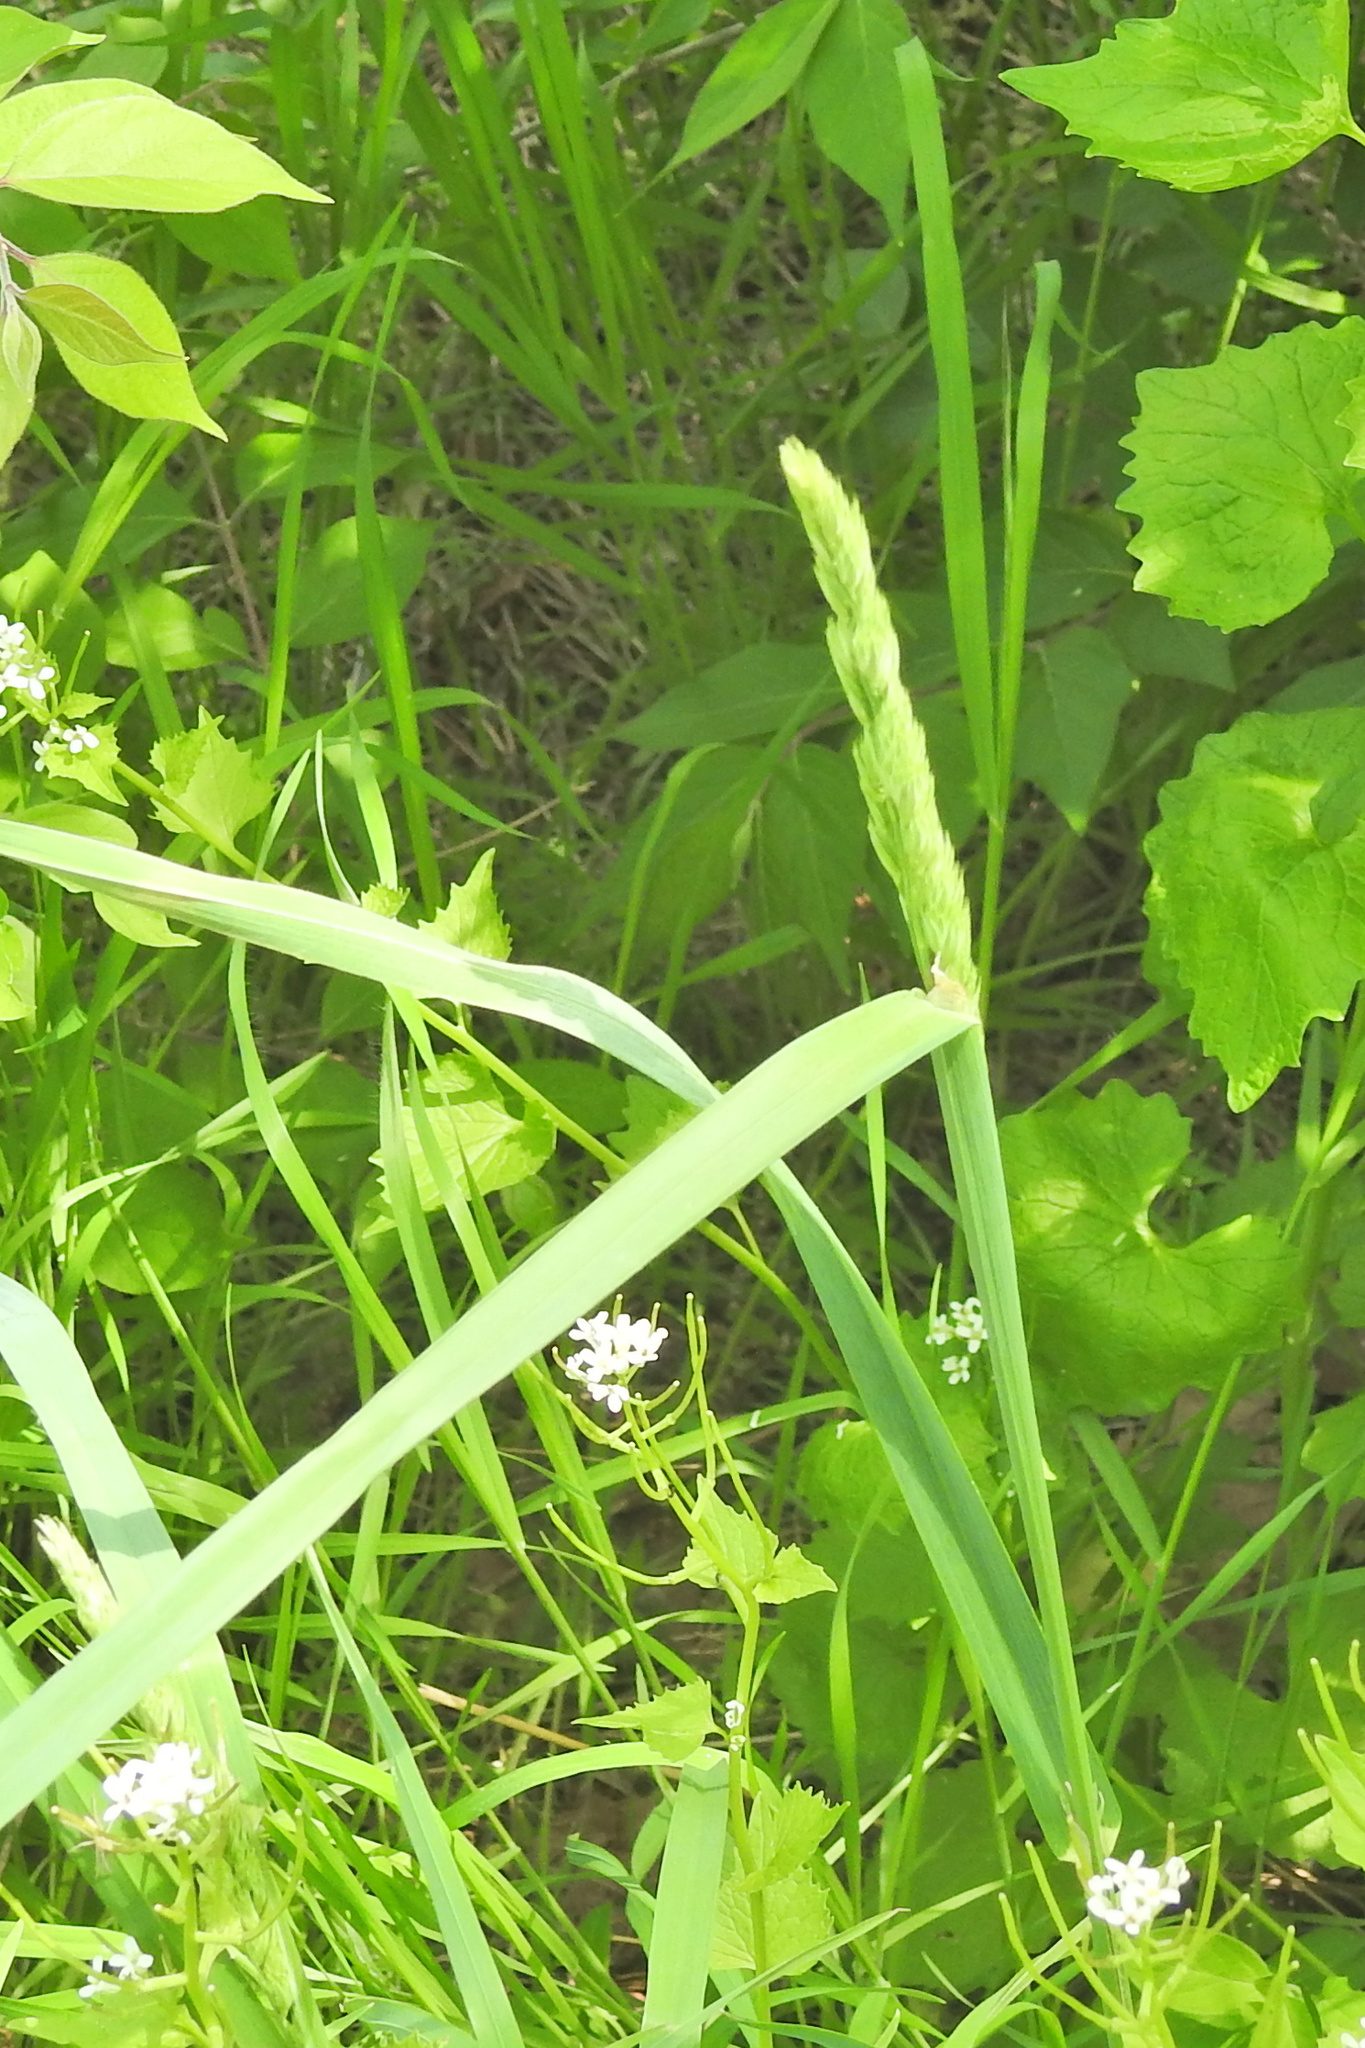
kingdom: Plantae
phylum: Tracheophyta
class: Liliopsida
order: Poales
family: Poaceae
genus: Dactylis
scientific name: Dactylis glomerata
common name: Orchardgrass
